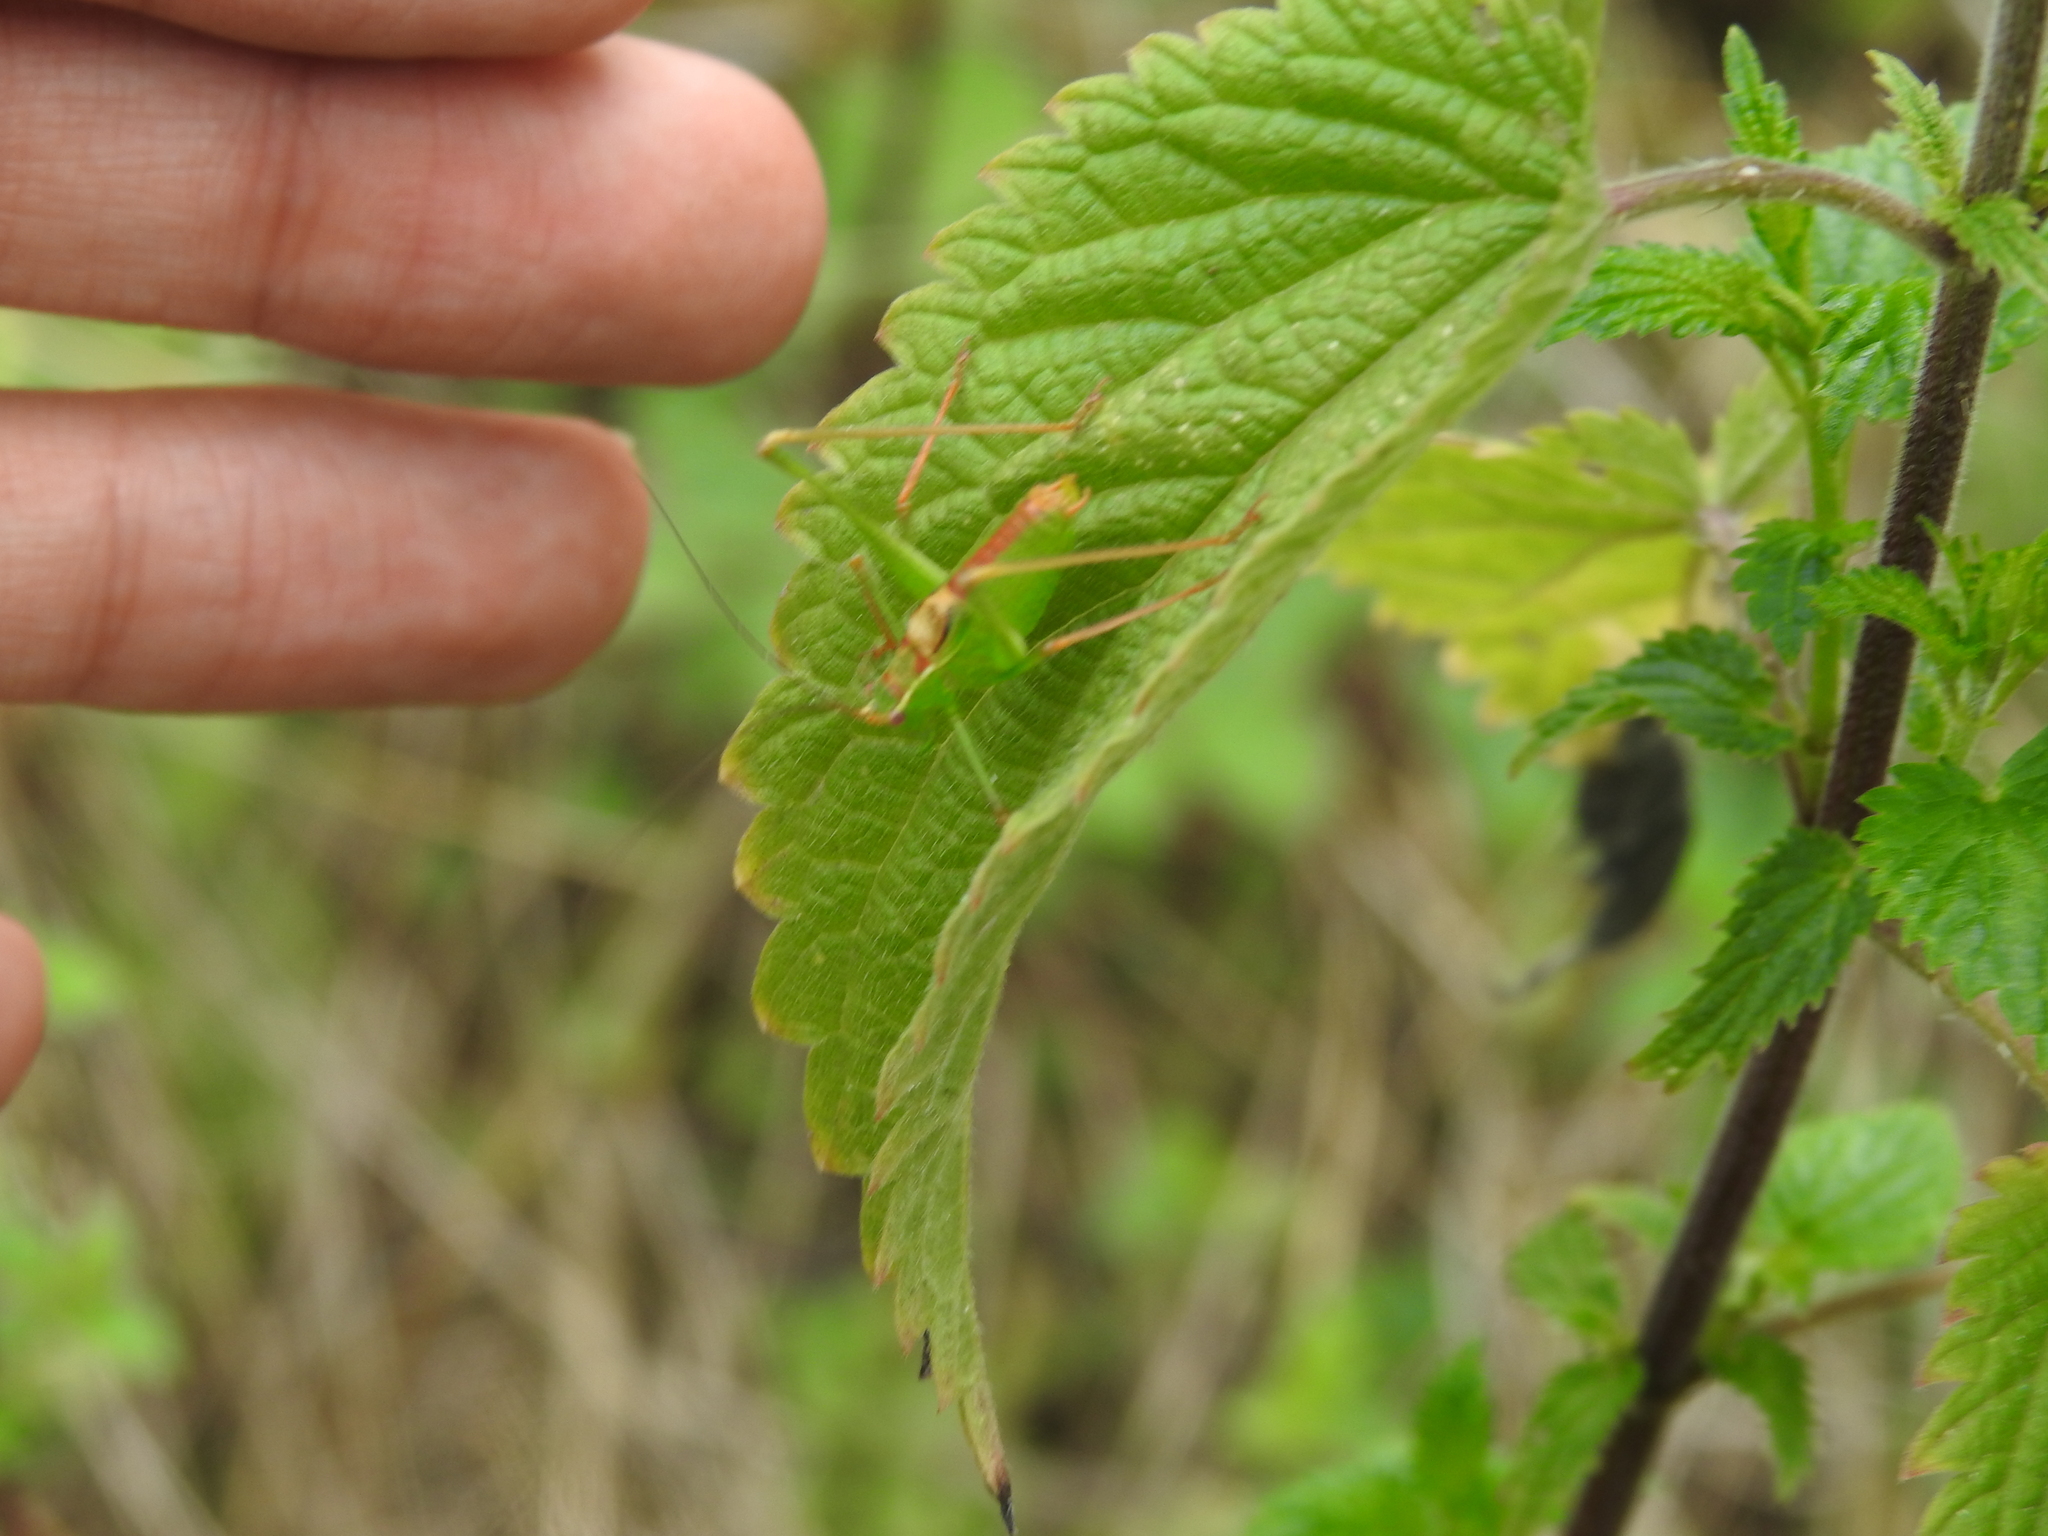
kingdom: Animalia
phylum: Arthropoda
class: Insecta
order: Orthoptera
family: Tettigoniidae
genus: Leptophyes
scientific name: Leptophyes punctatissima
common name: Speckled bush-cricket
